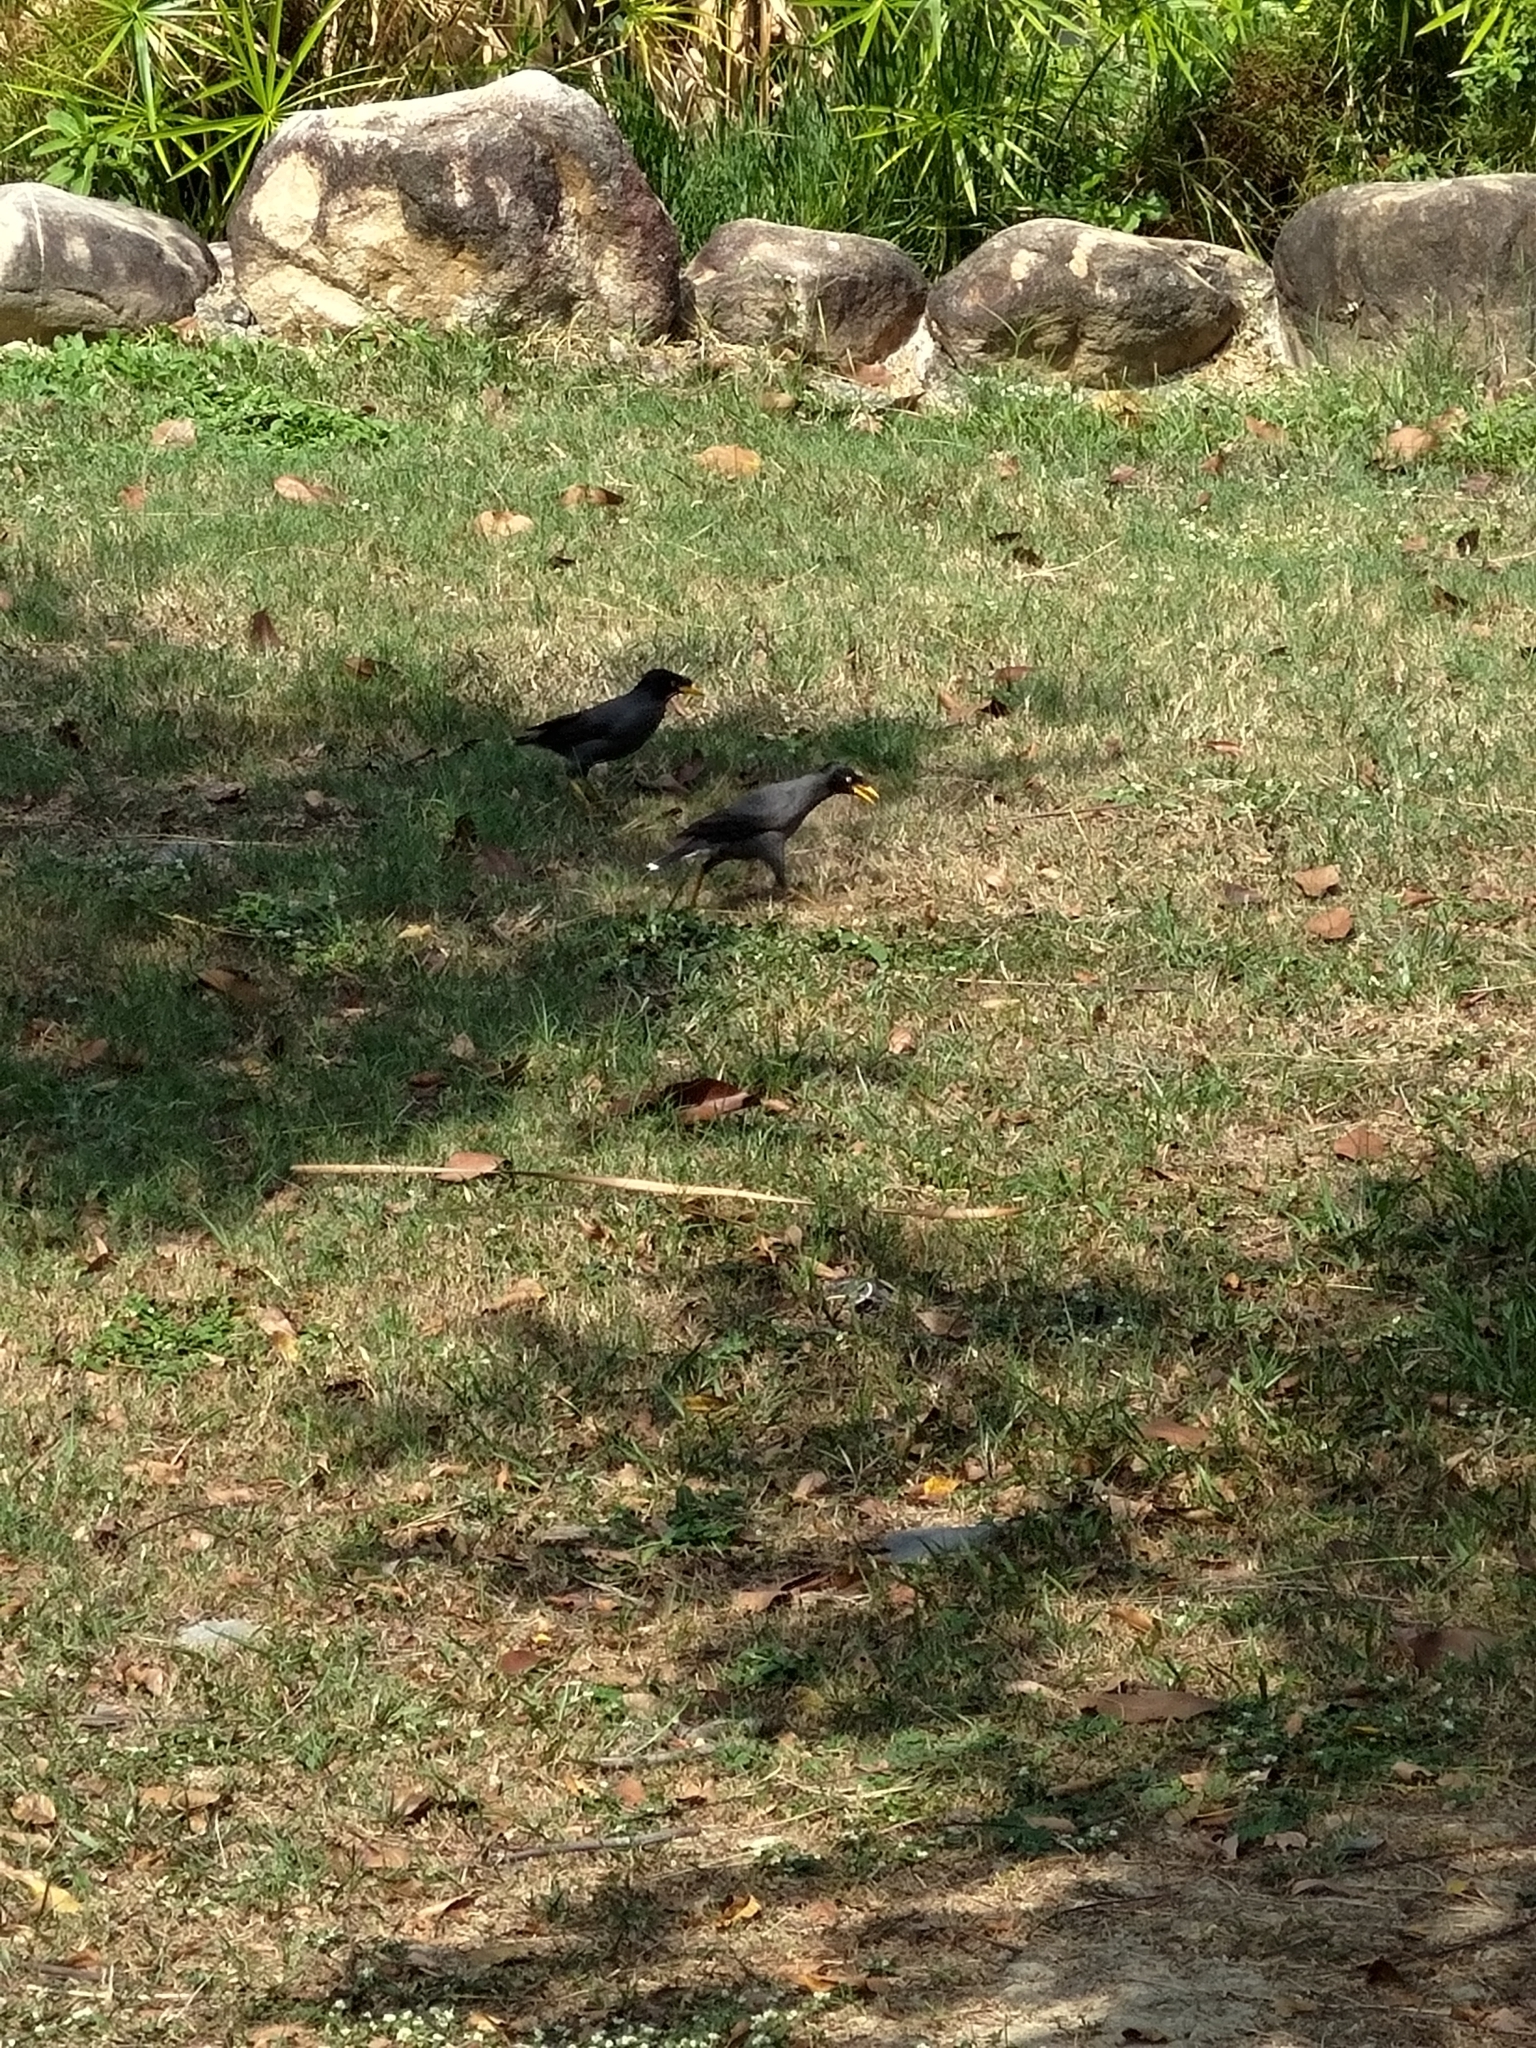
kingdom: Animalia
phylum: Chordata
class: Aves
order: Passeriformes
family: Sturnidae
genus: Acridotheres
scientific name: Acridotheres javanicus
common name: Javan myna
